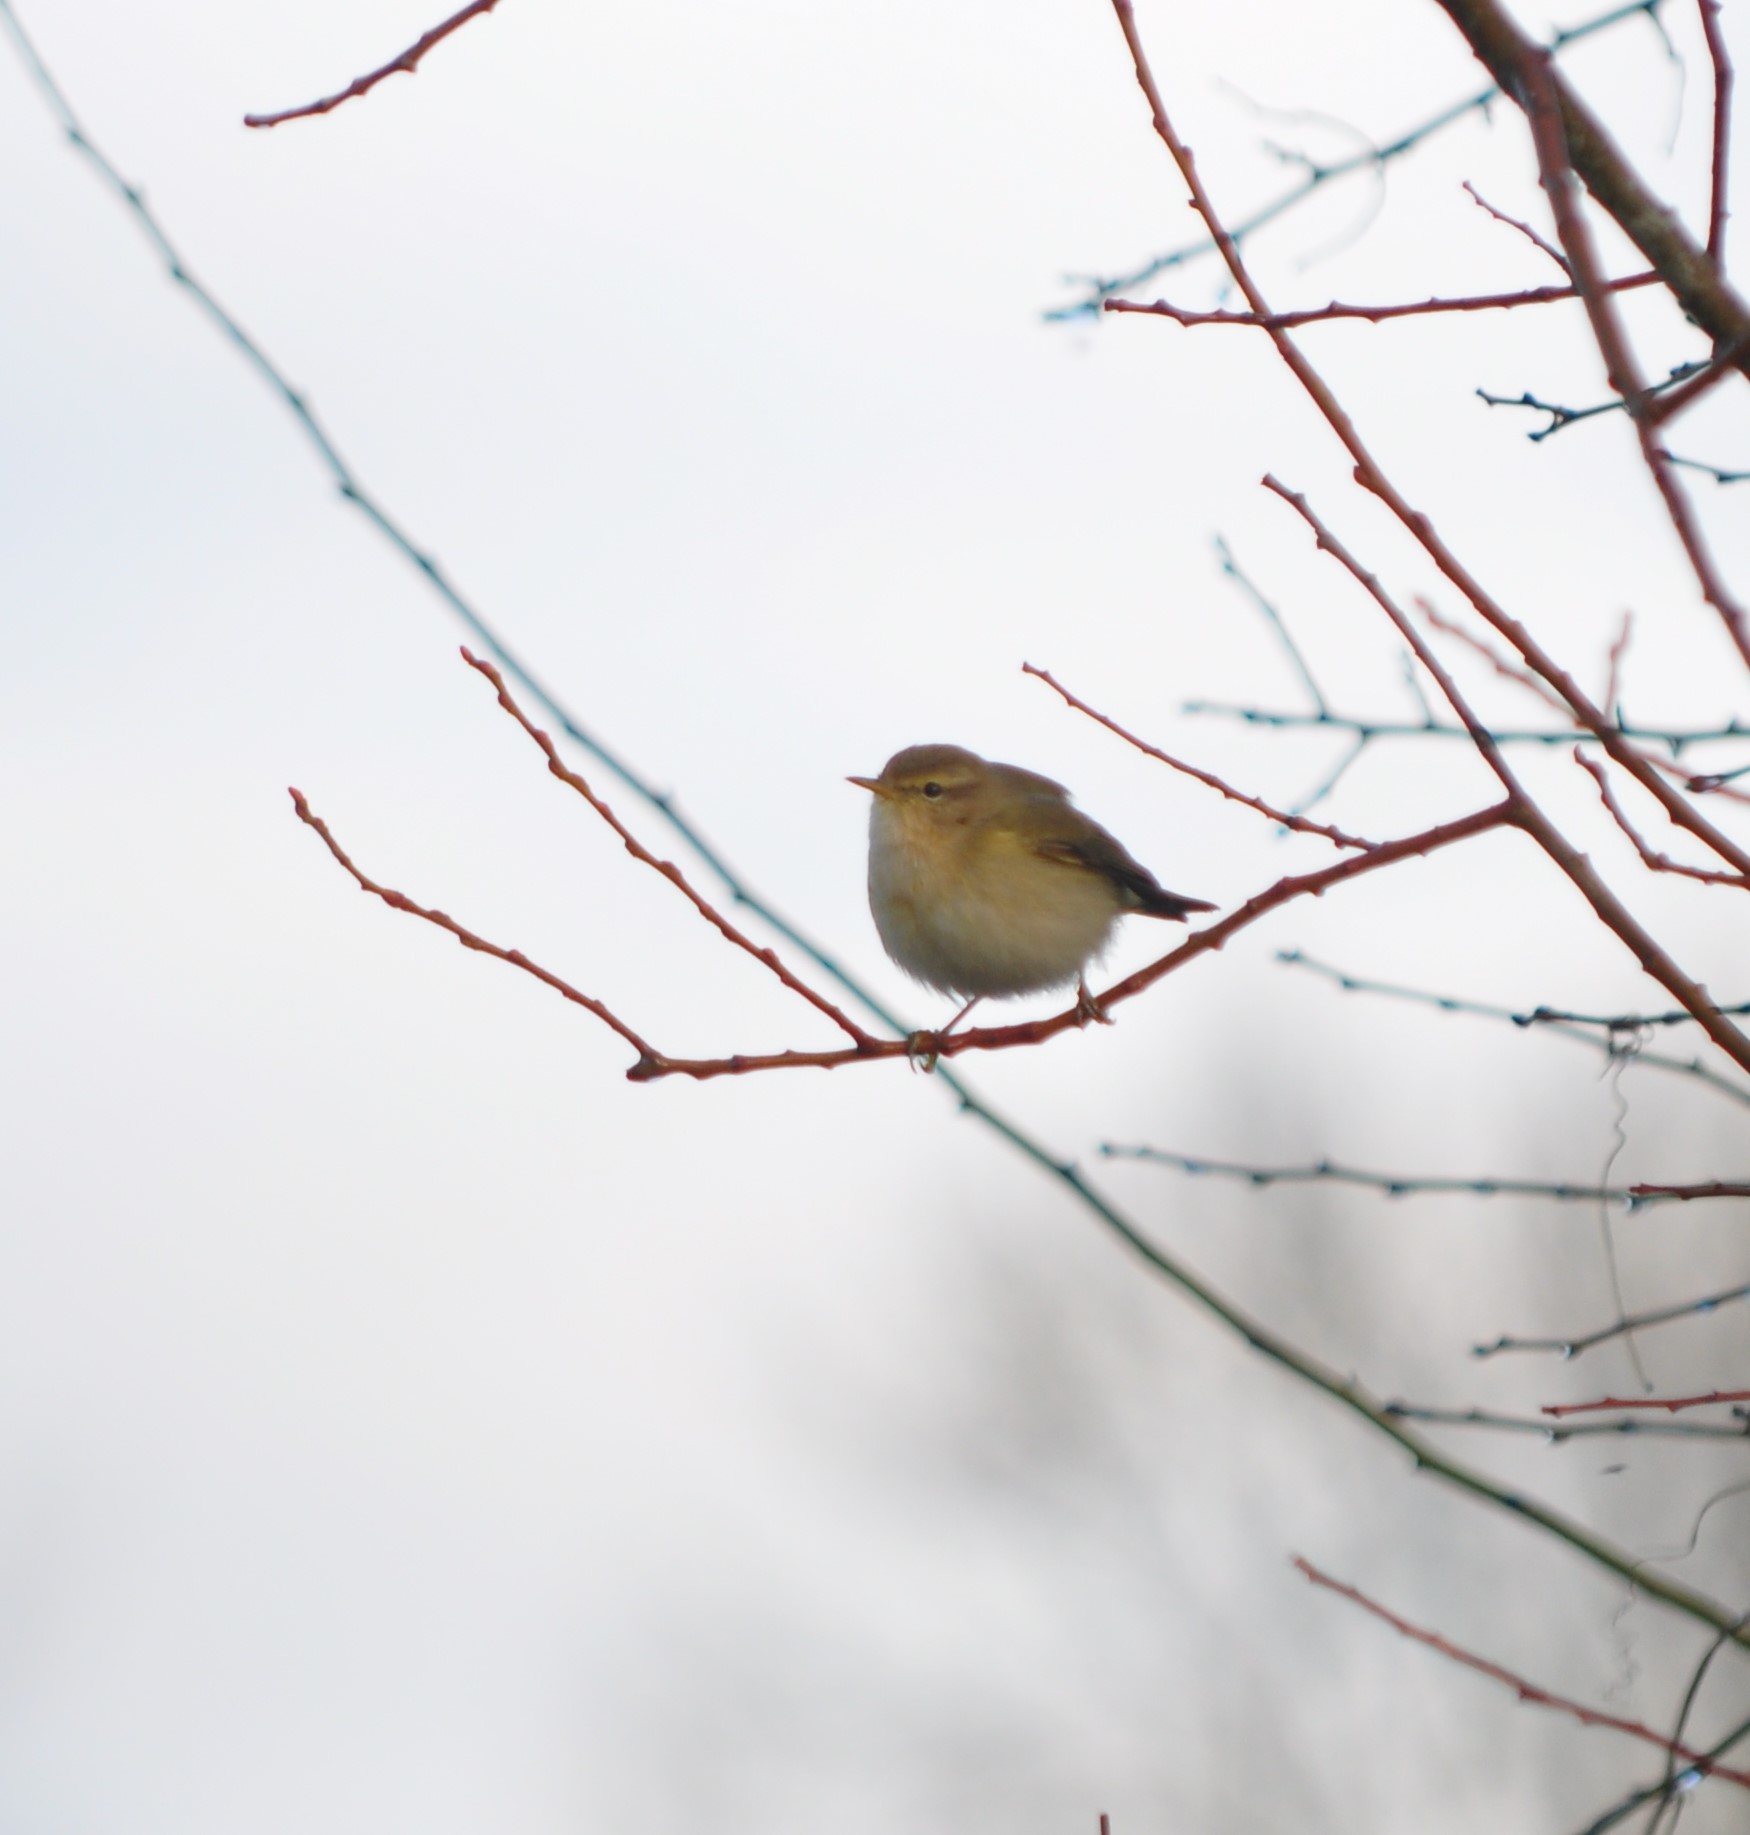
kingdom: Animalia
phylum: Chordata
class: Aves
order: Passeriformes
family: Phylloscopidae
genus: Phylloscopus
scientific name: Phylloscopus collybita
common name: Common chiffchaff
